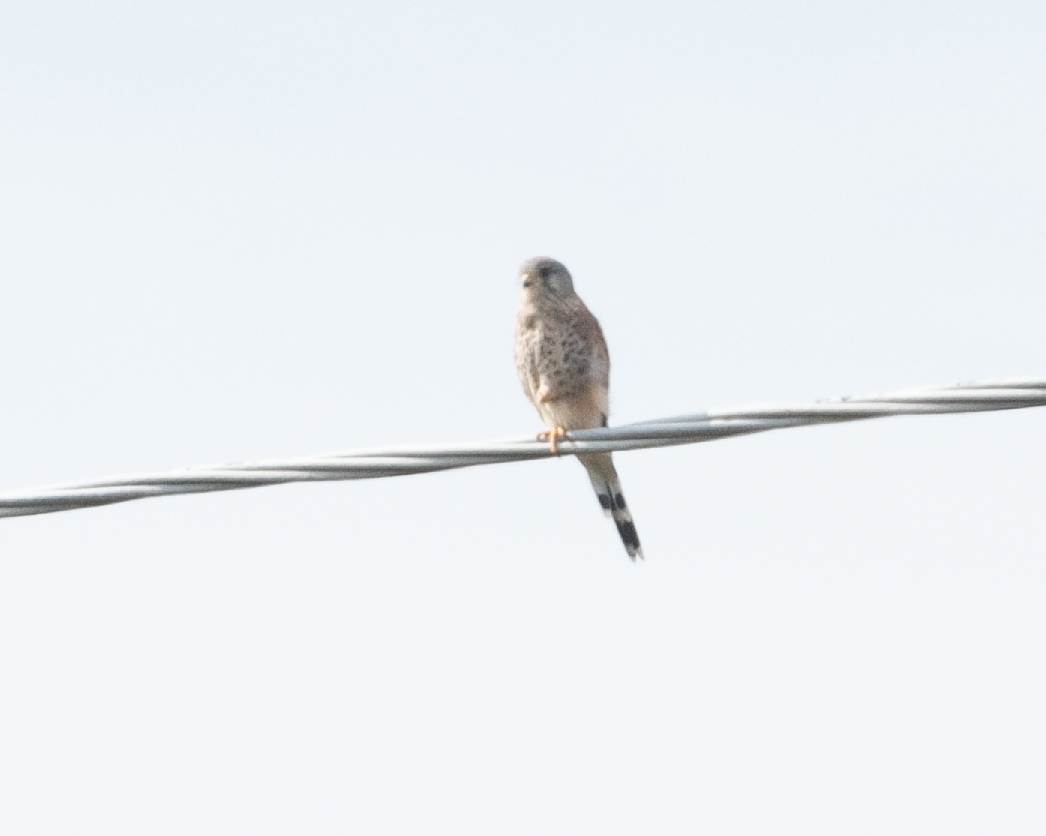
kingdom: Animalia
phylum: Chordata
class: Aves
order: Falconiformes
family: Falconidae
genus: Falco
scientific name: Falco tinnunculus
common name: Common kestrel
